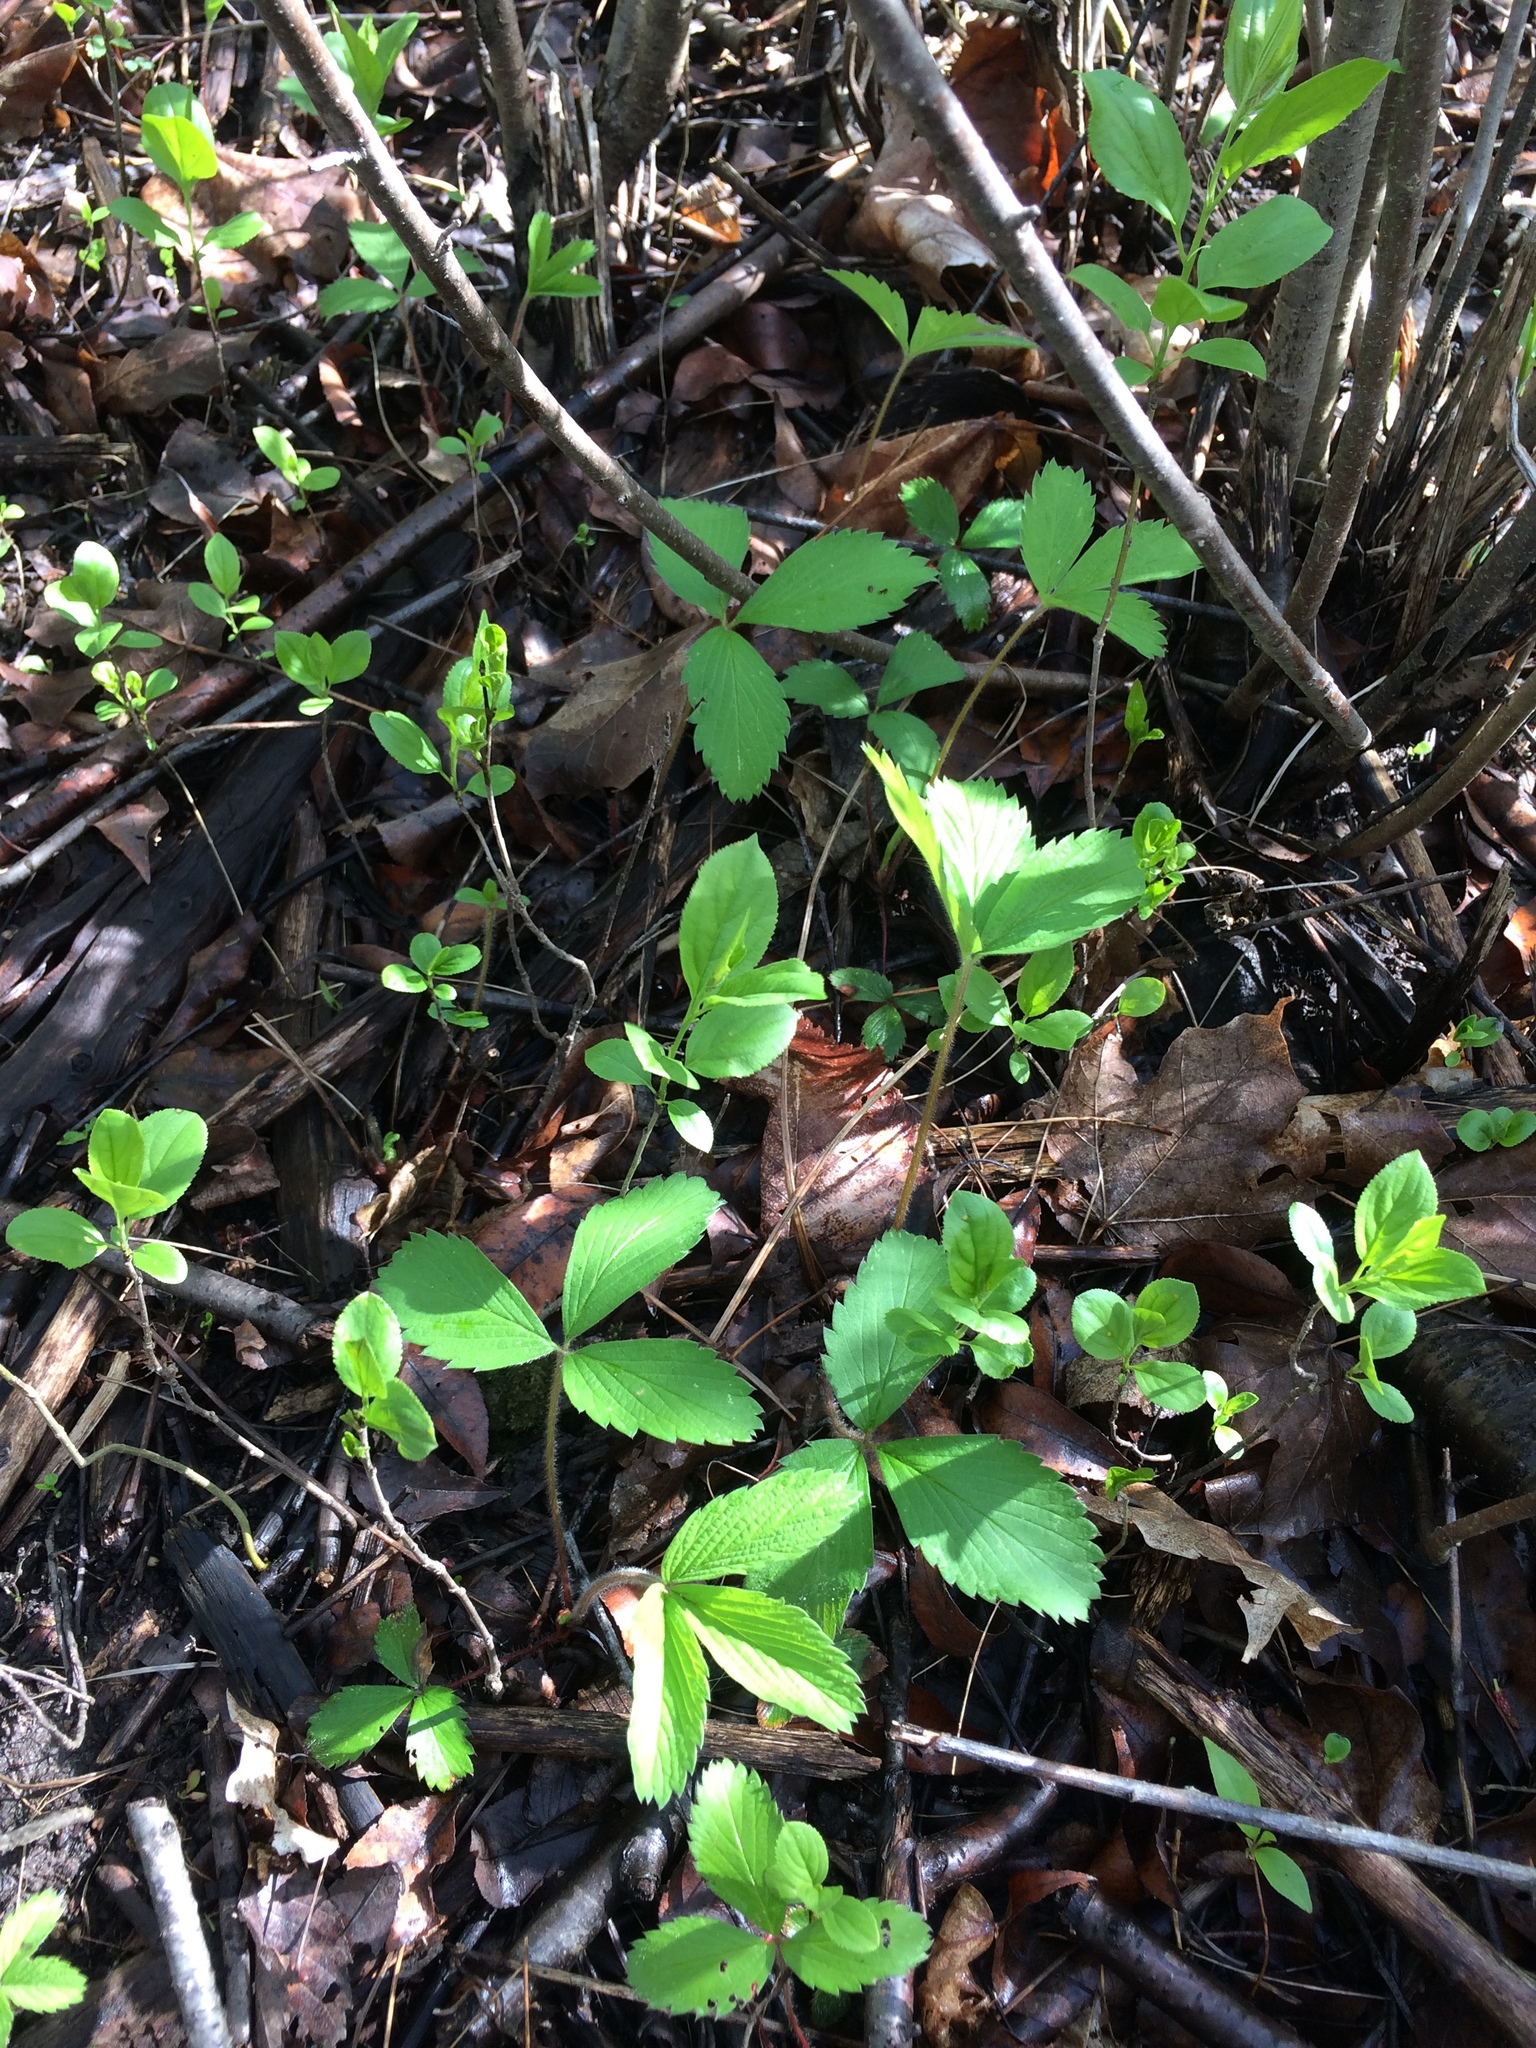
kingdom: Plantae
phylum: Tracheophyta
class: Magnoliopsida
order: Rosales
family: Rosaceae
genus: Fragaria
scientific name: Fragaria virginiana
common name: Thickleaved wild strawberry
